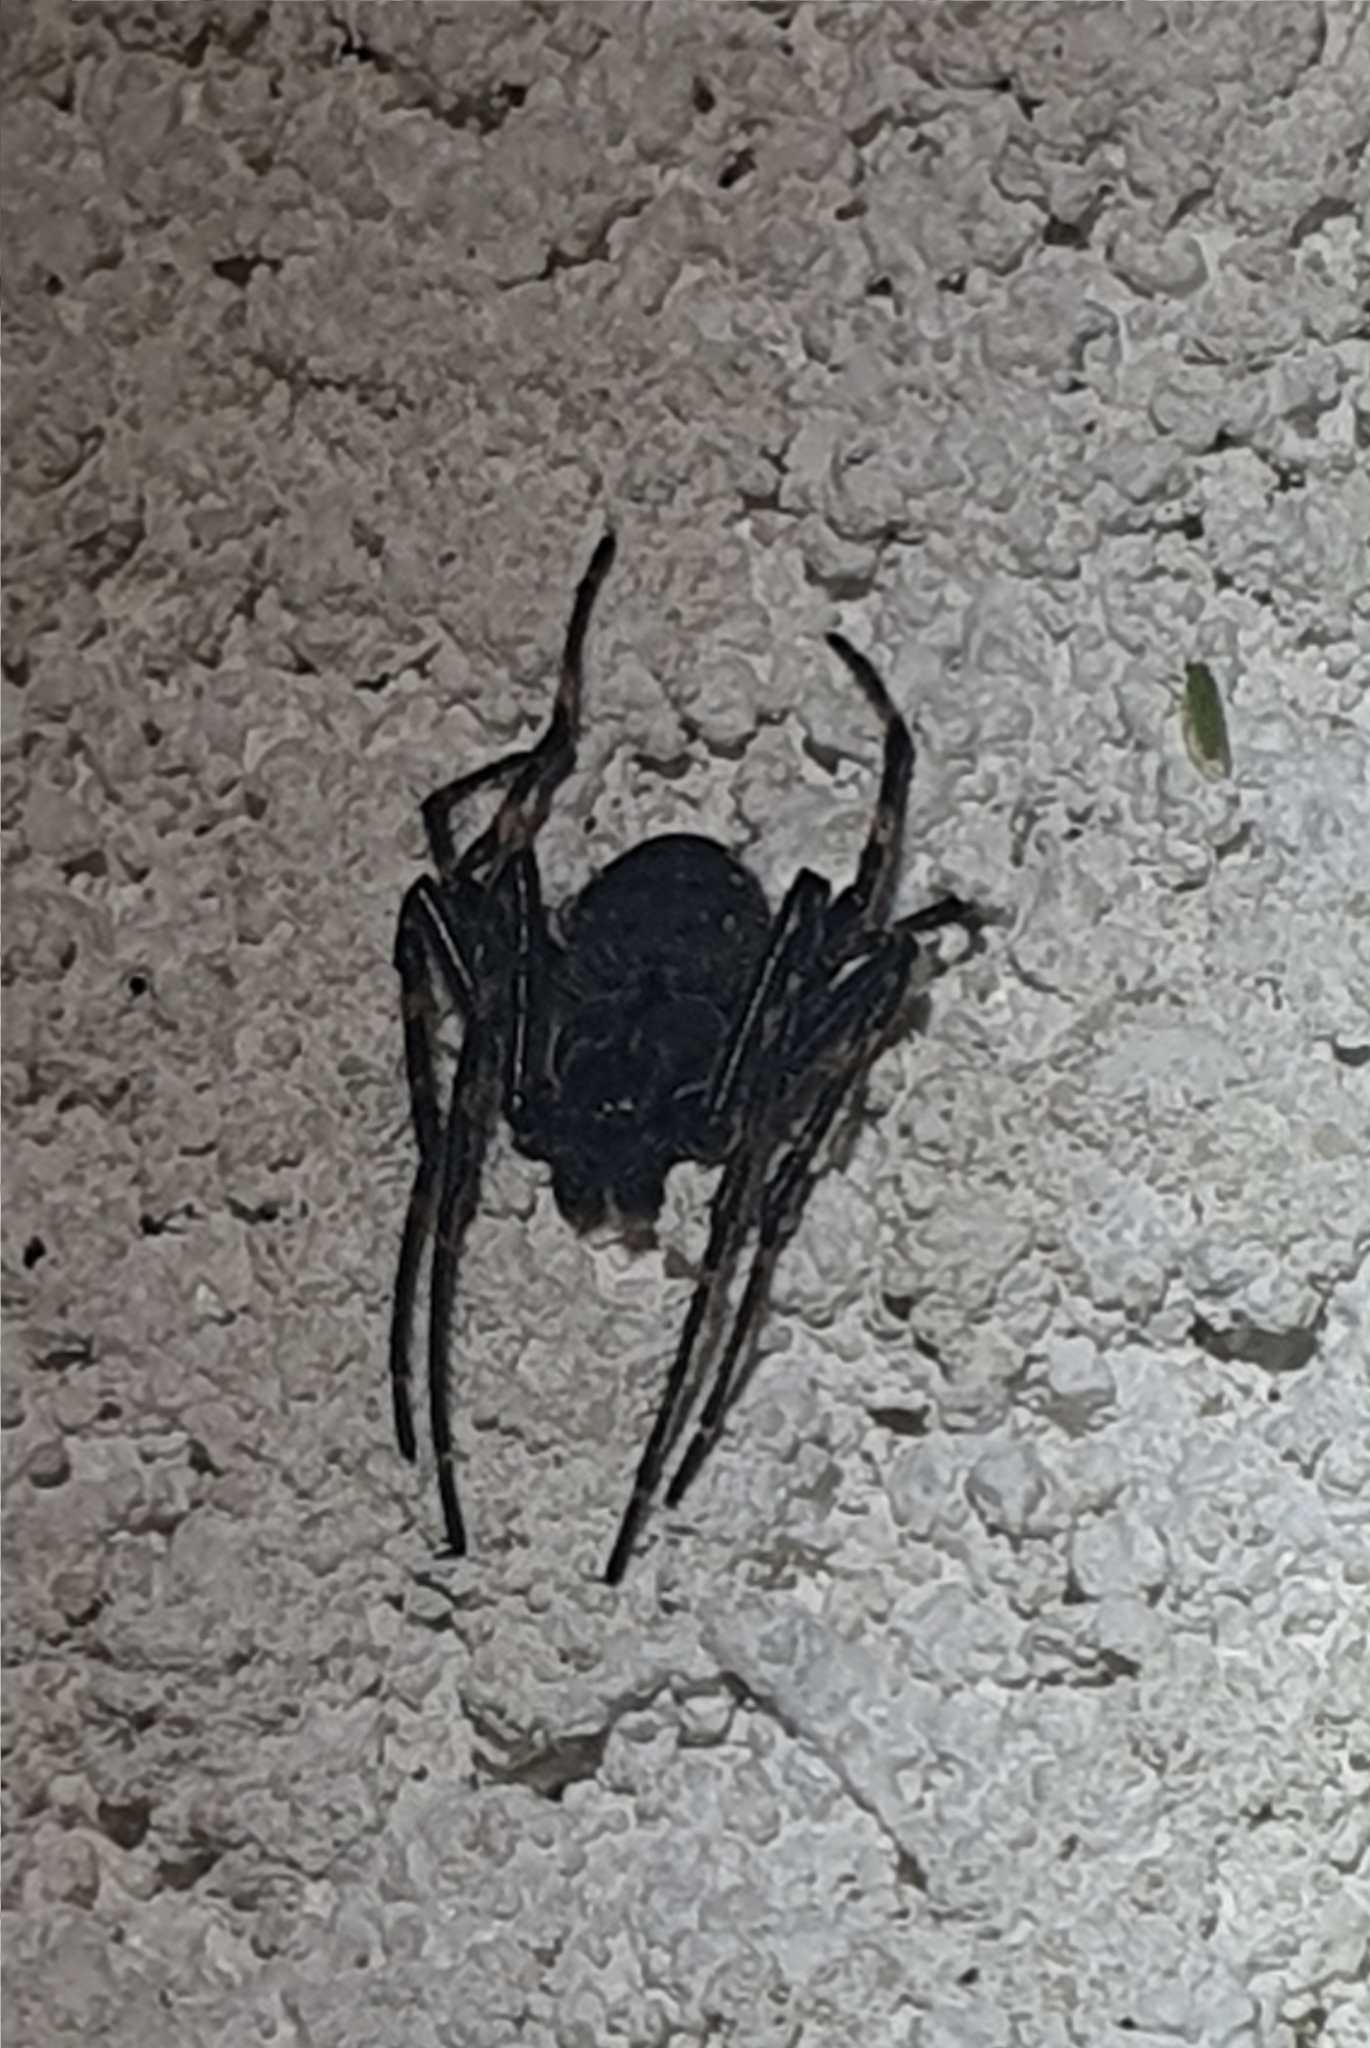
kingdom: Animalia
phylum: Arthropoda
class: Arachnida
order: Araneae
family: Araneidae
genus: Nuctenea
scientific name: Nuctenea umbratica
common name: Toad spider
